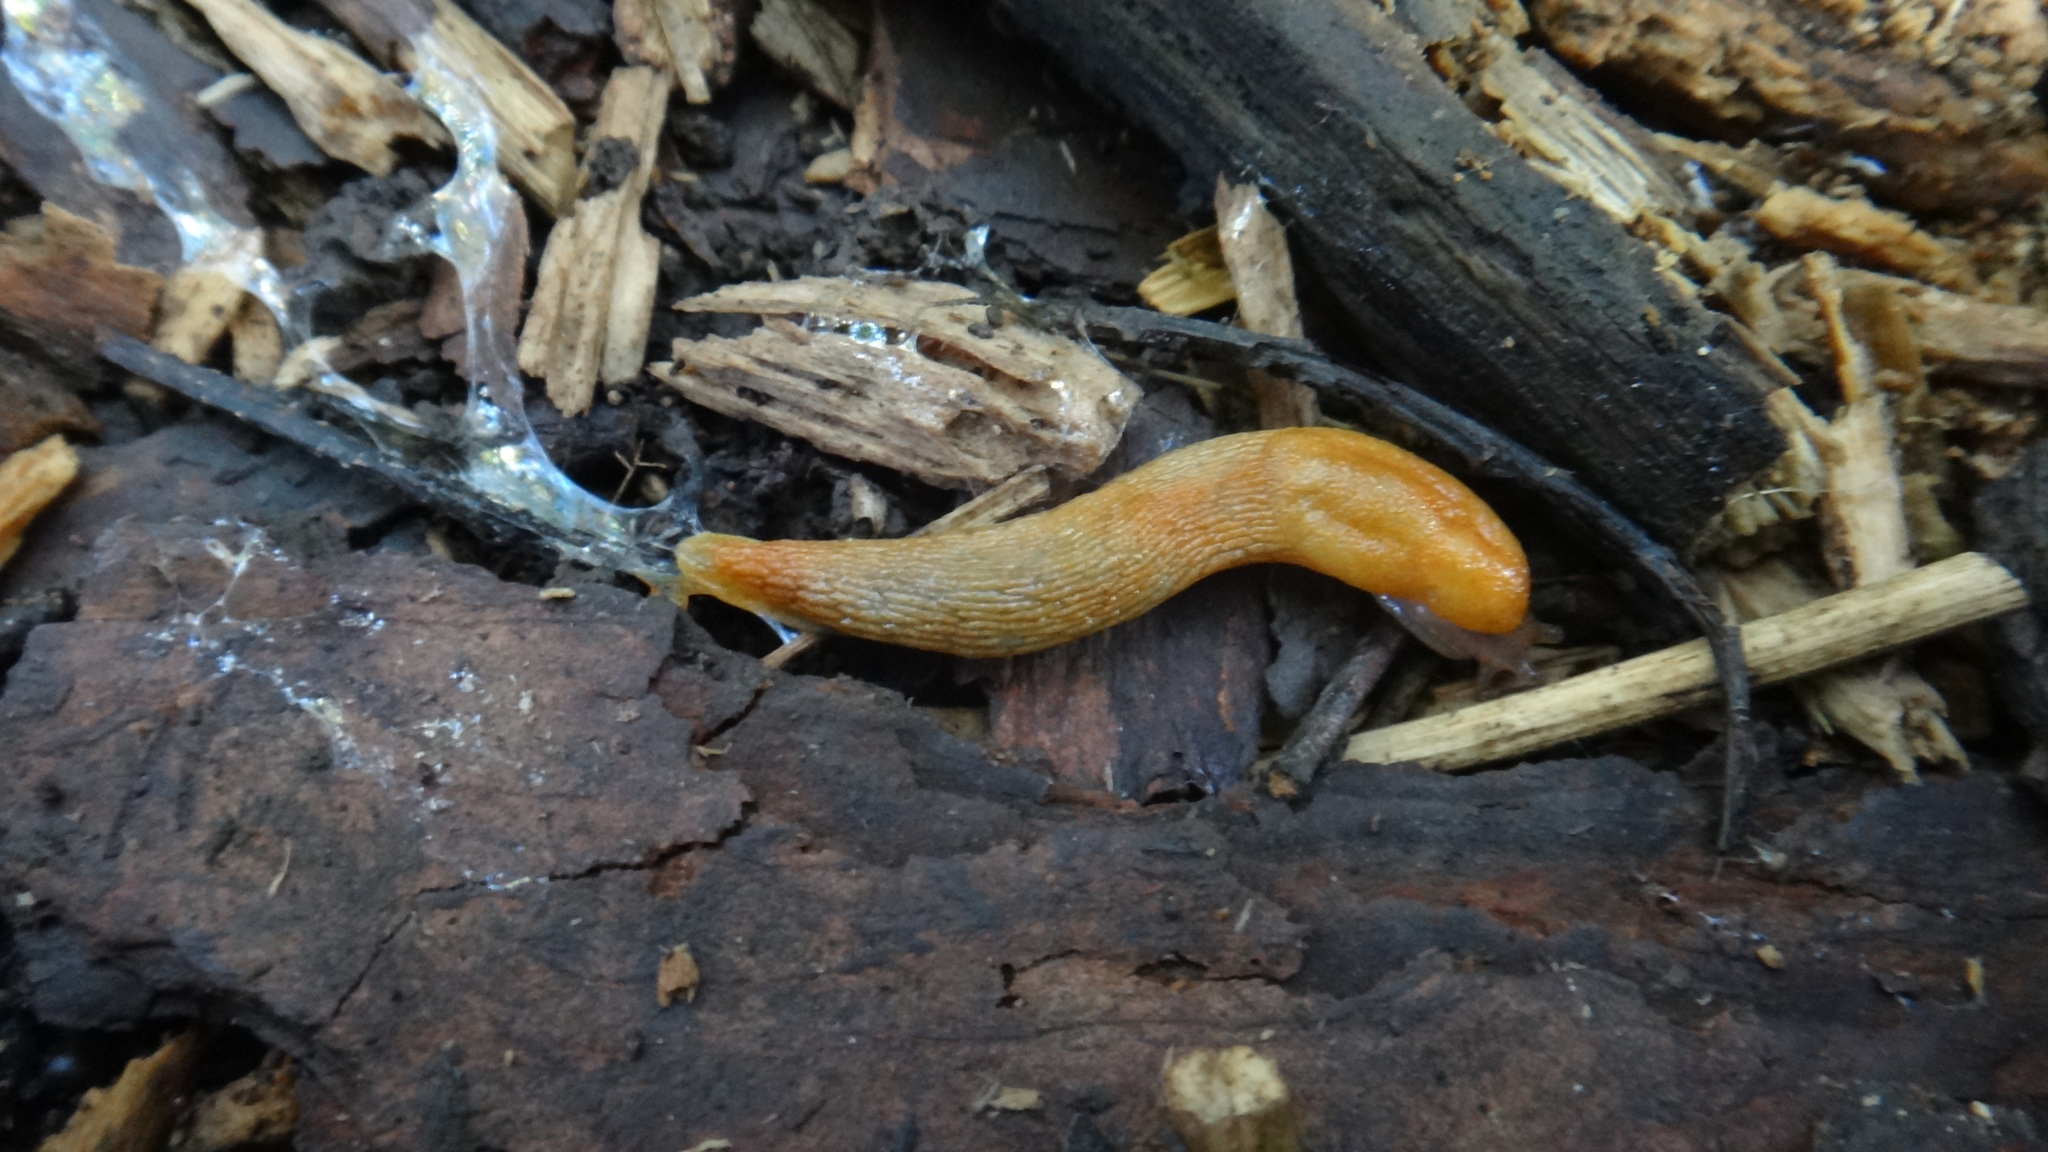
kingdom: Animalia
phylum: Mollusca
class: Gastropoda
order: Stylommatophora
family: Arionidae
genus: Arion
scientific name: Arion fuscus
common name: Northern dusky slug
